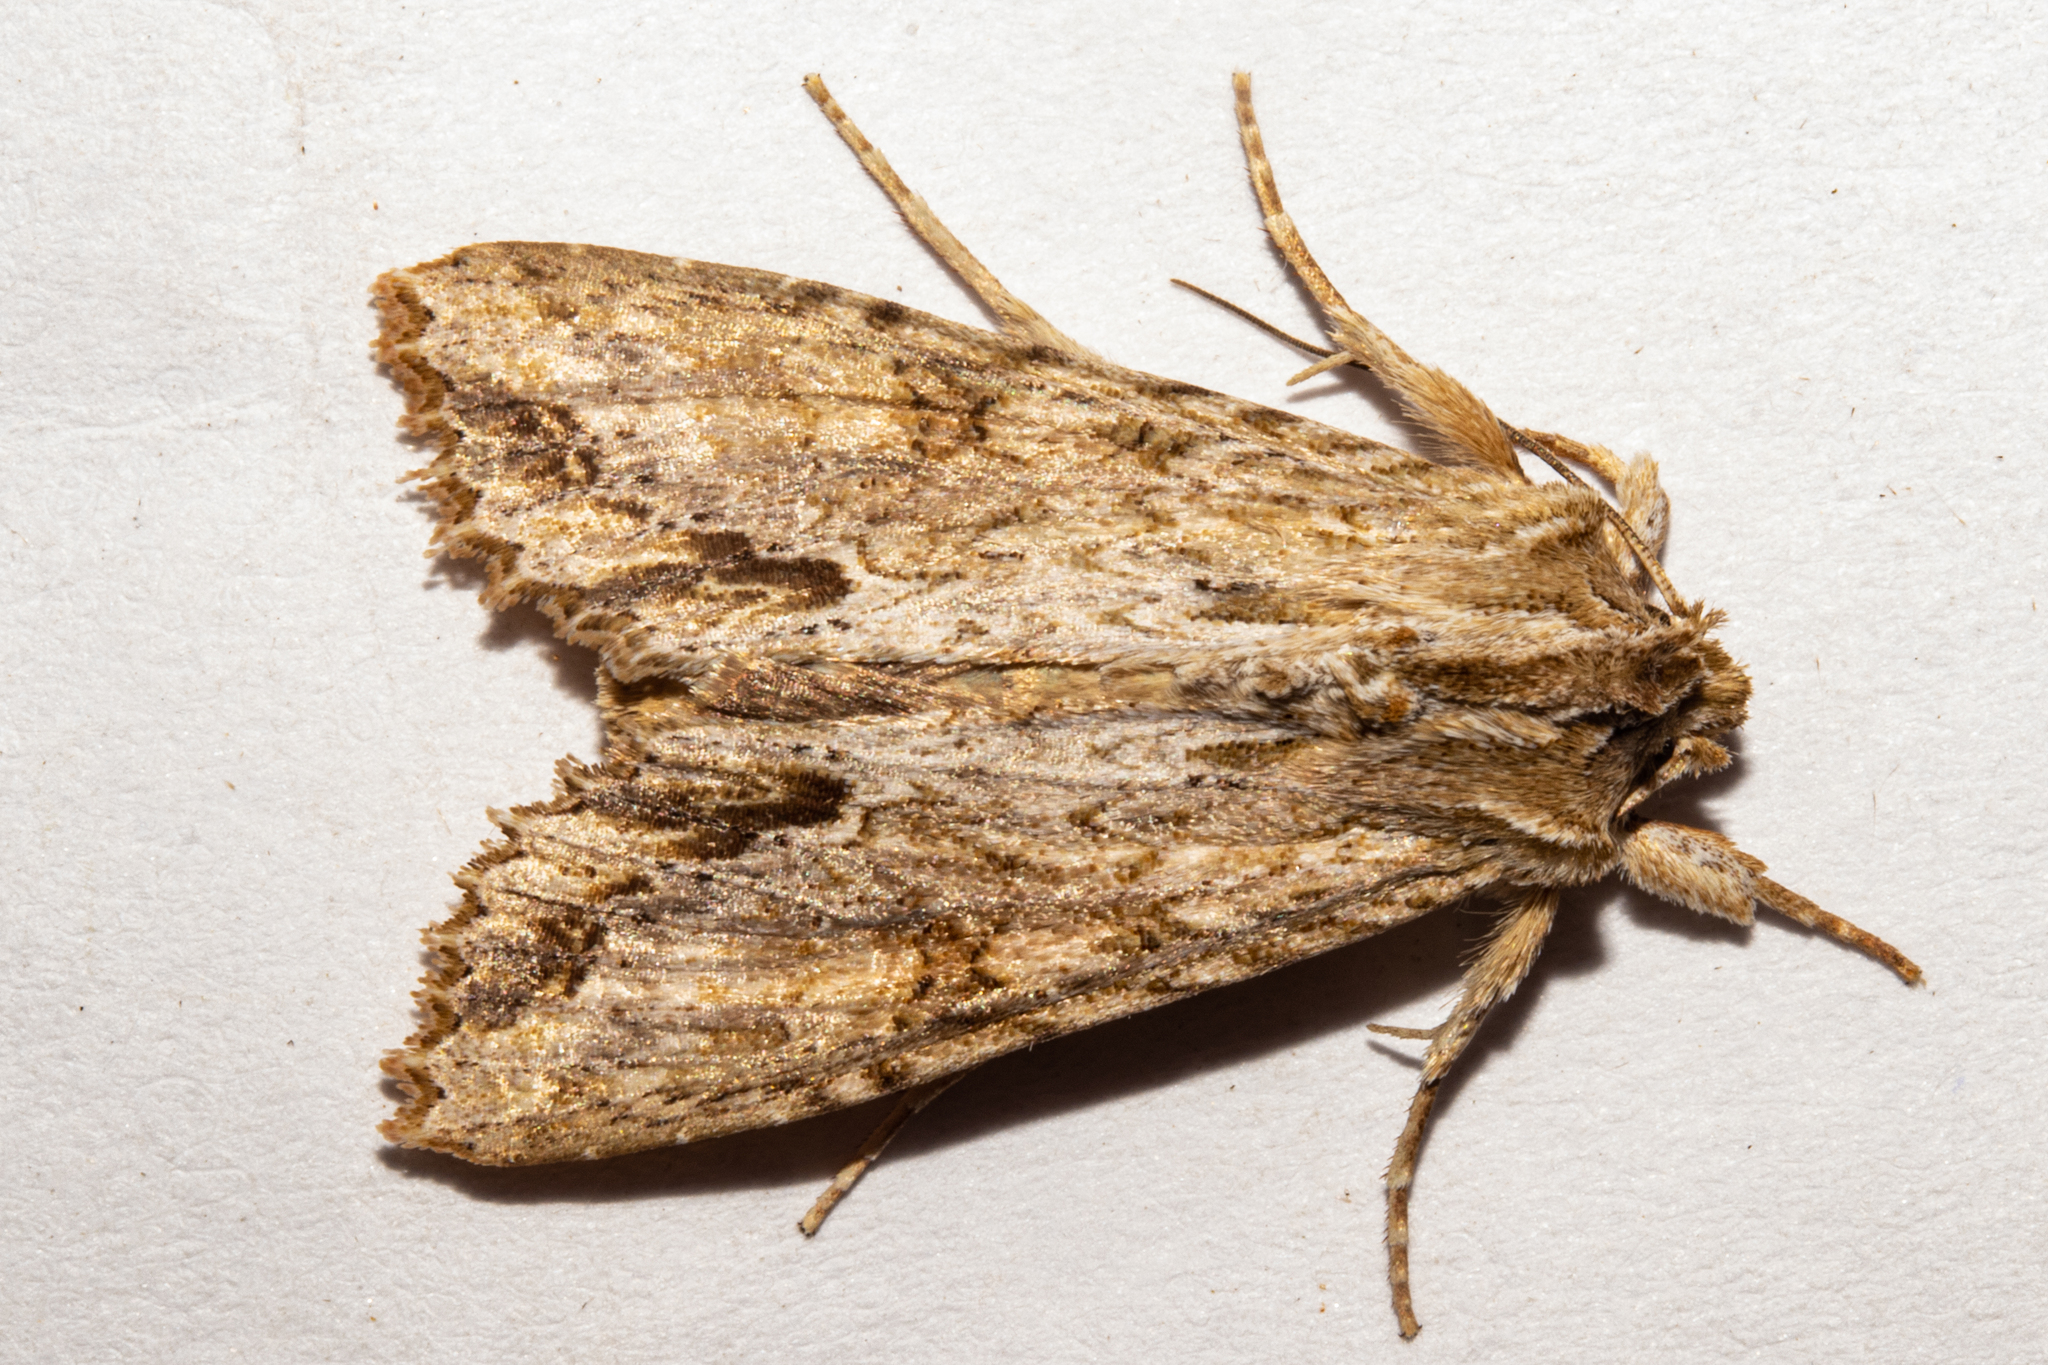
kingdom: Animalia
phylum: Arthropoda
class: Insecta
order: Lepidoptera
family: Noctuidae
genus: Ichneutica
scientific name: Ichneutica mollis
